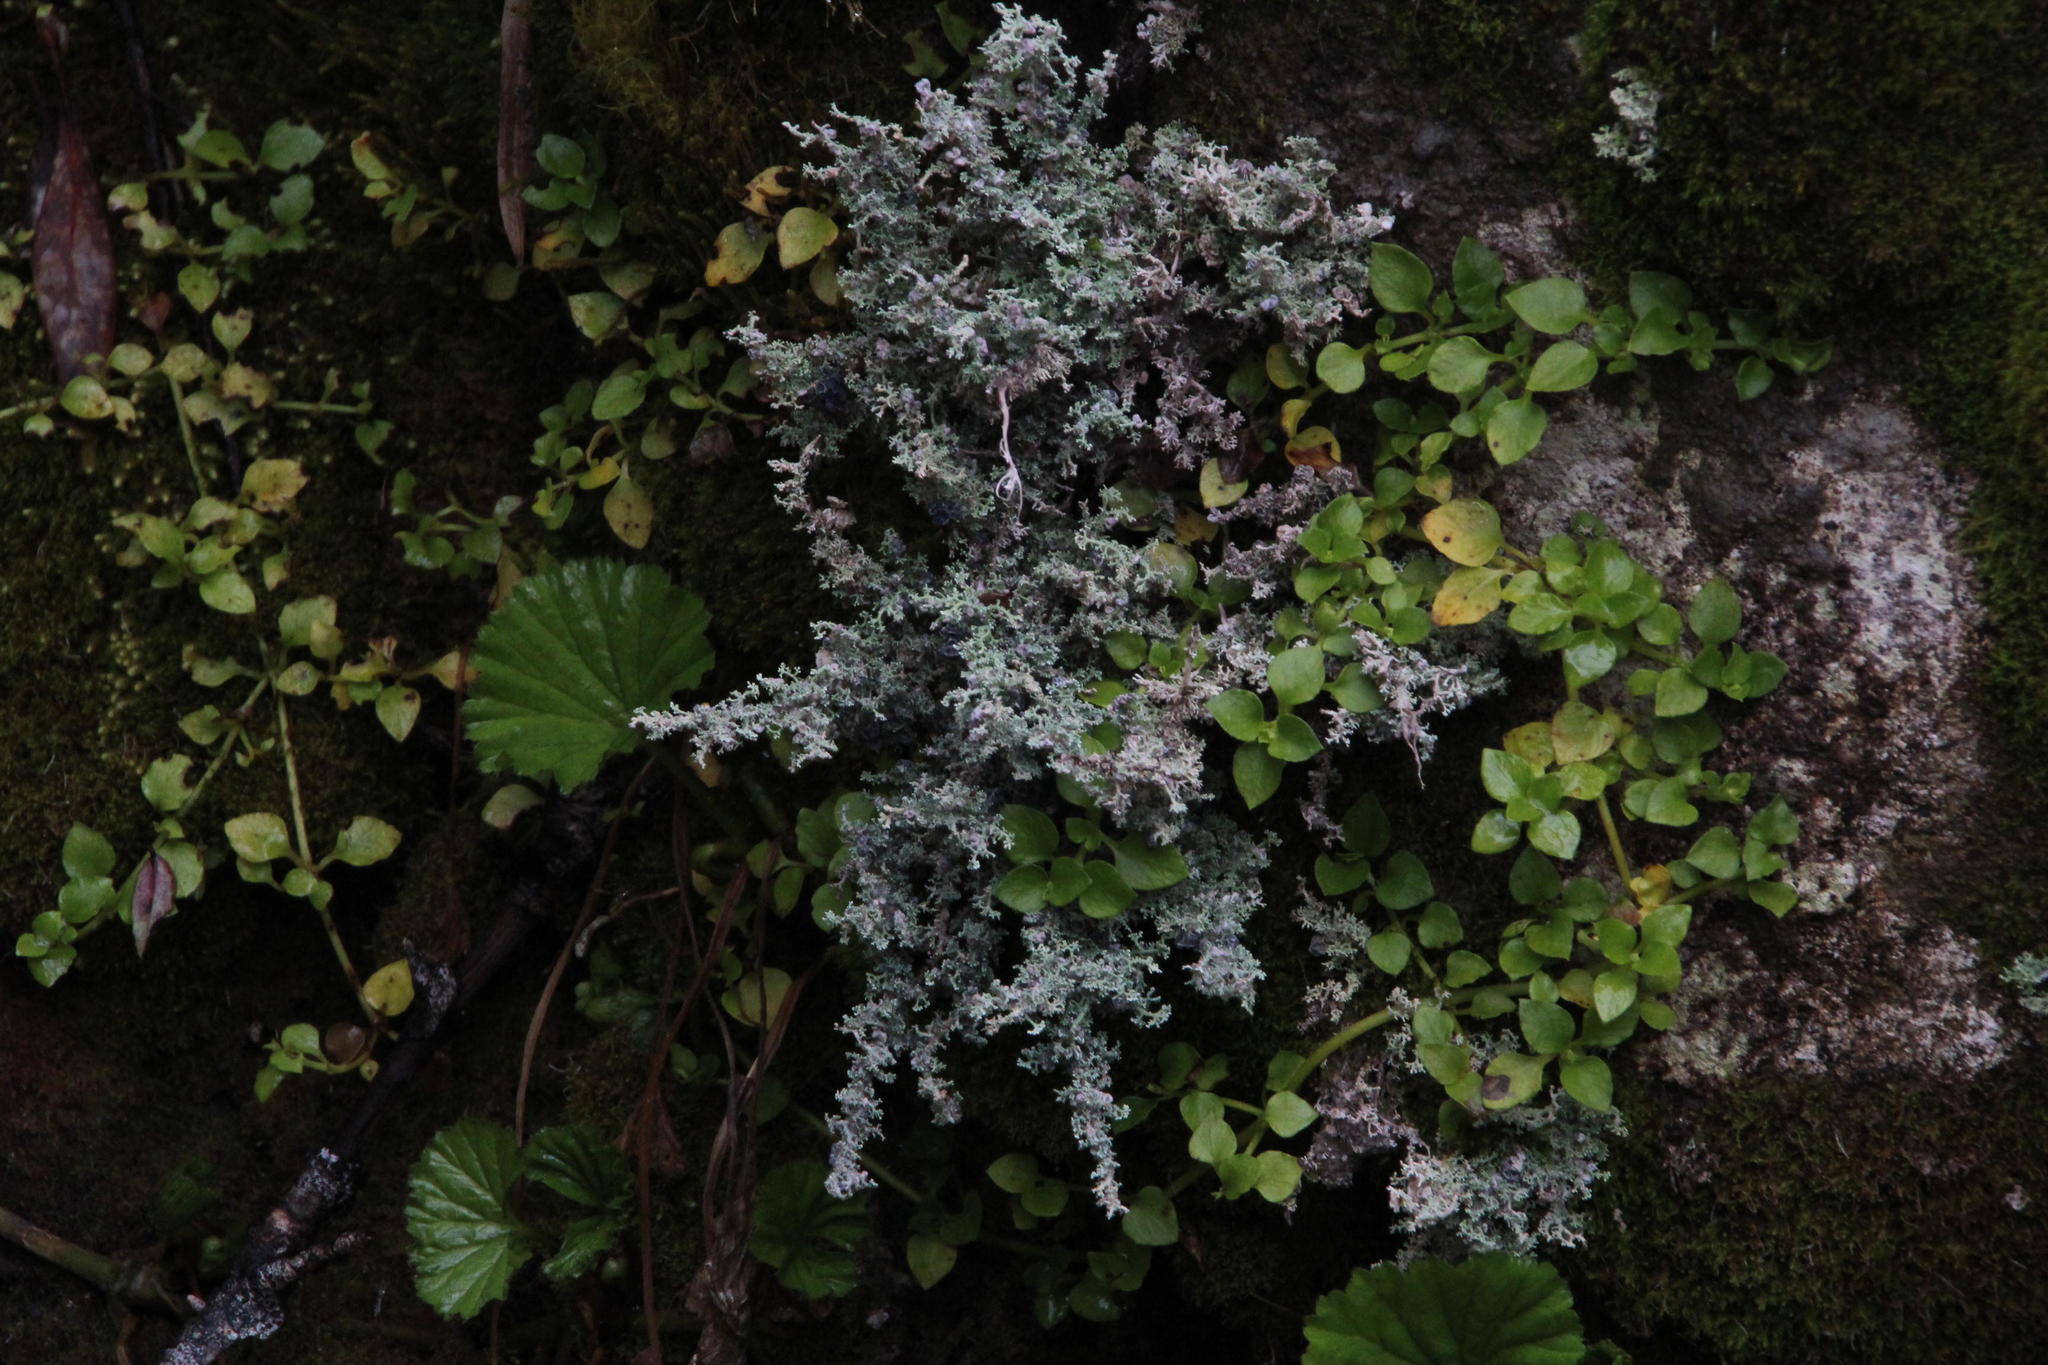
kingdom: Plantae
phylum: Tracheophyta
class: Magnoliopsida
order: Gentianales
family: Rubiaceae
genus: Nertera
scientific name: Nertera granadensis
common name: Beadplant
